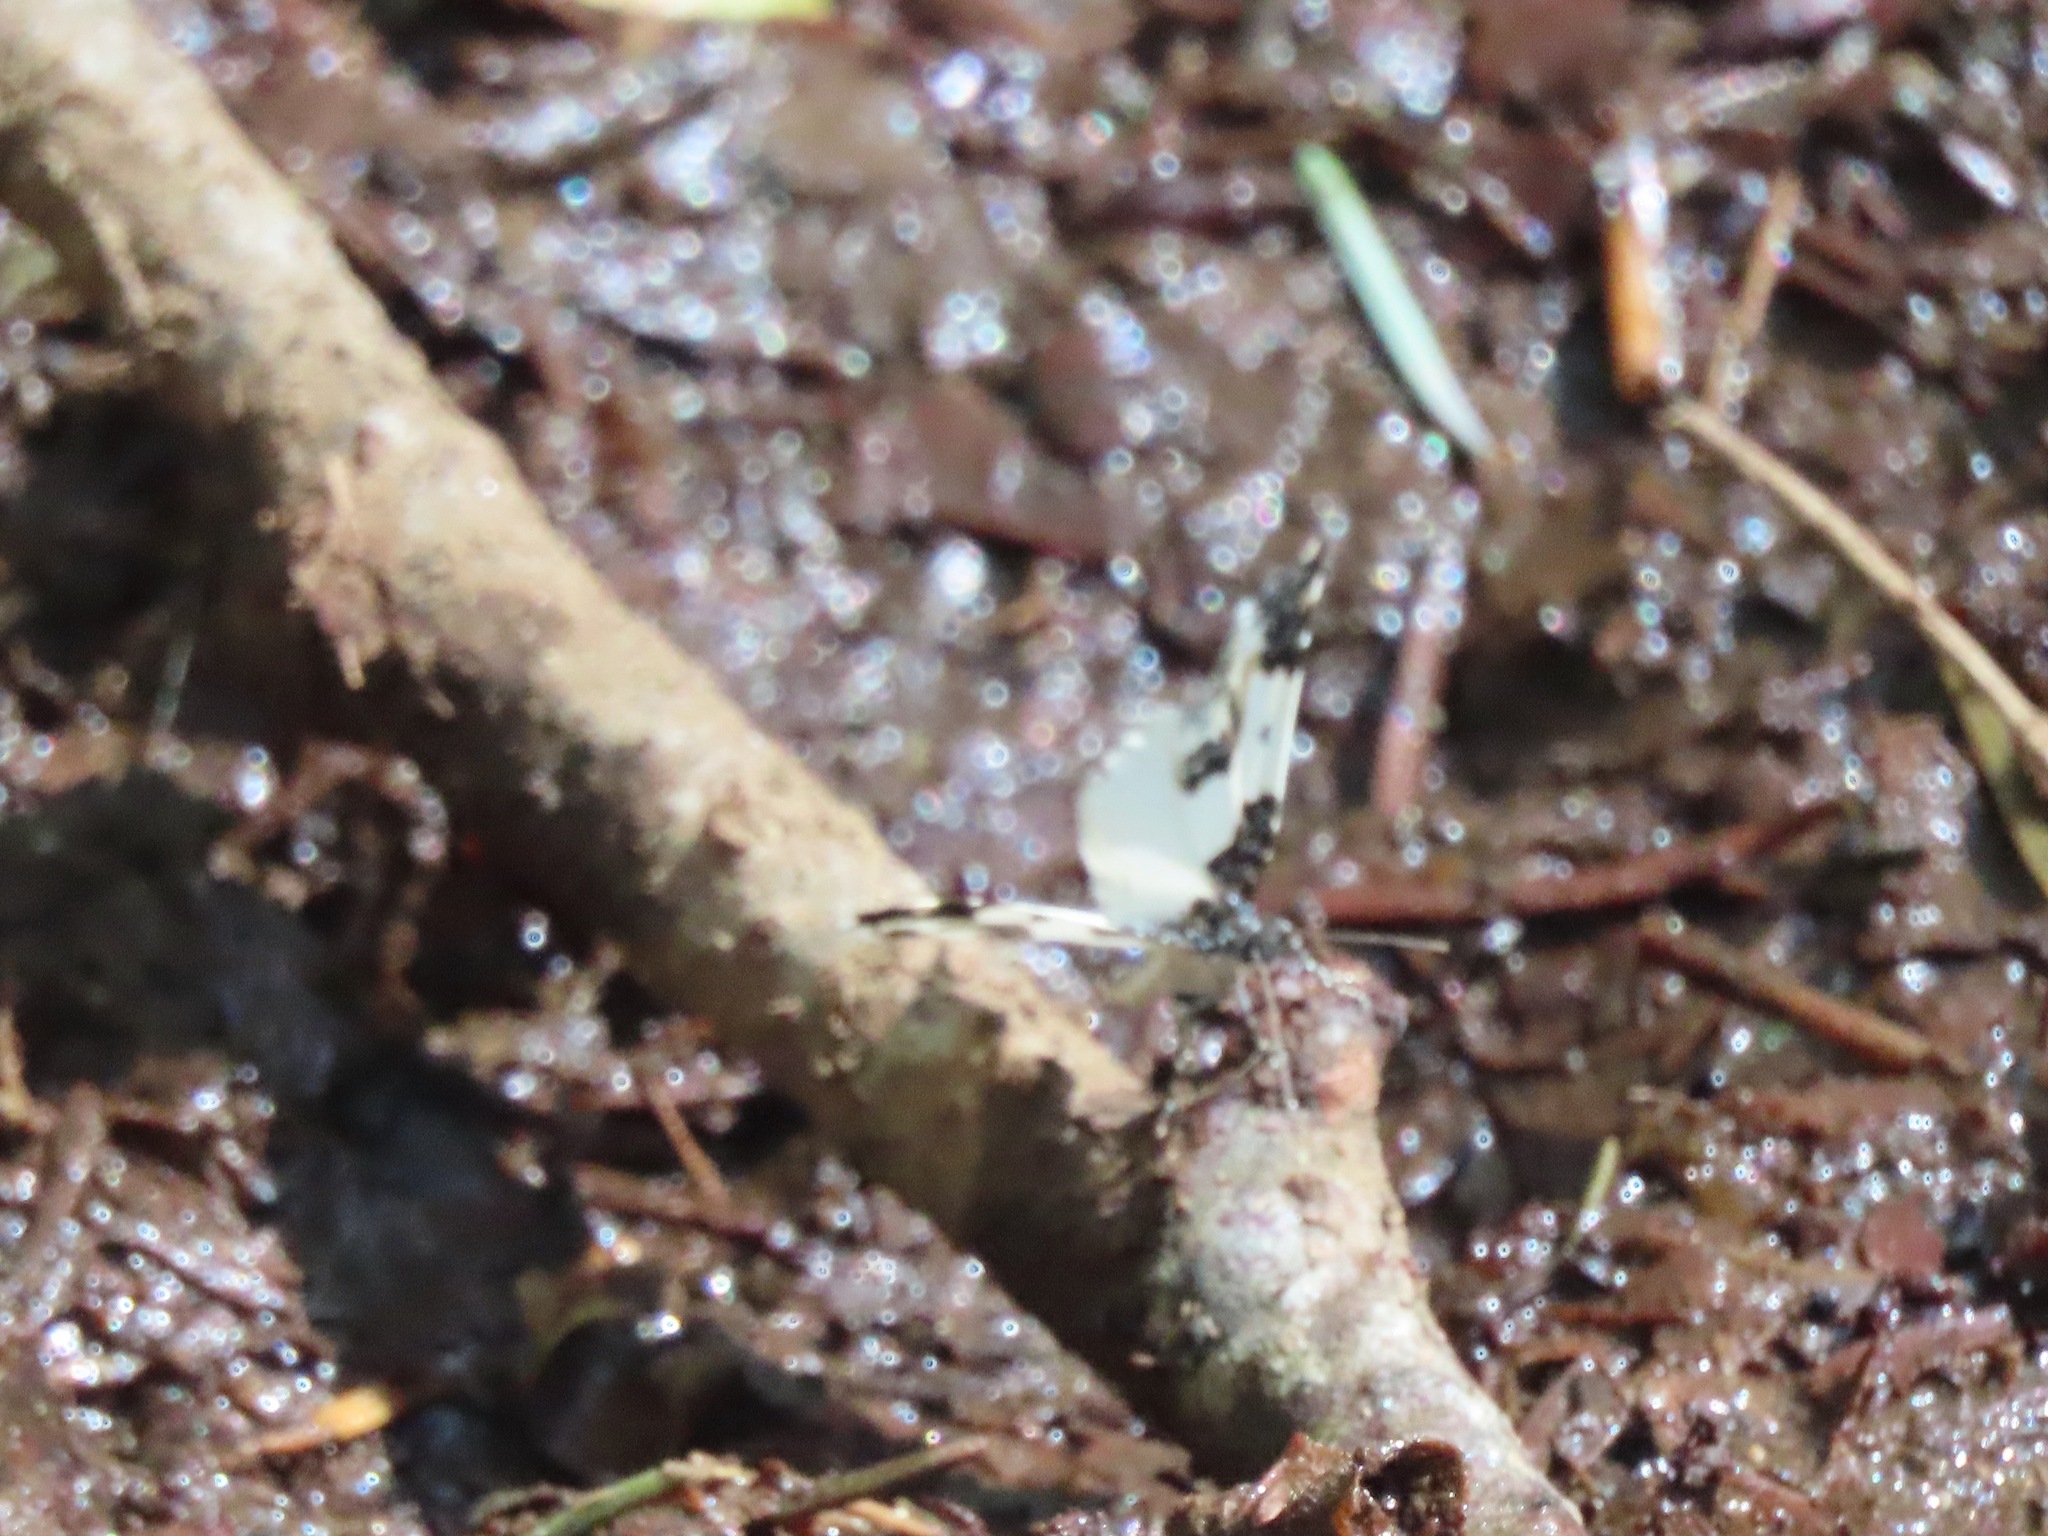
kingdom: Animalia
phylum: Arthropoda
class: Insecta
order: Lepidoptera
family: Geometridae
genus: Mesoleuca
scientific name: Mesoleuca gratulata
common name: Half-white carpet moth
